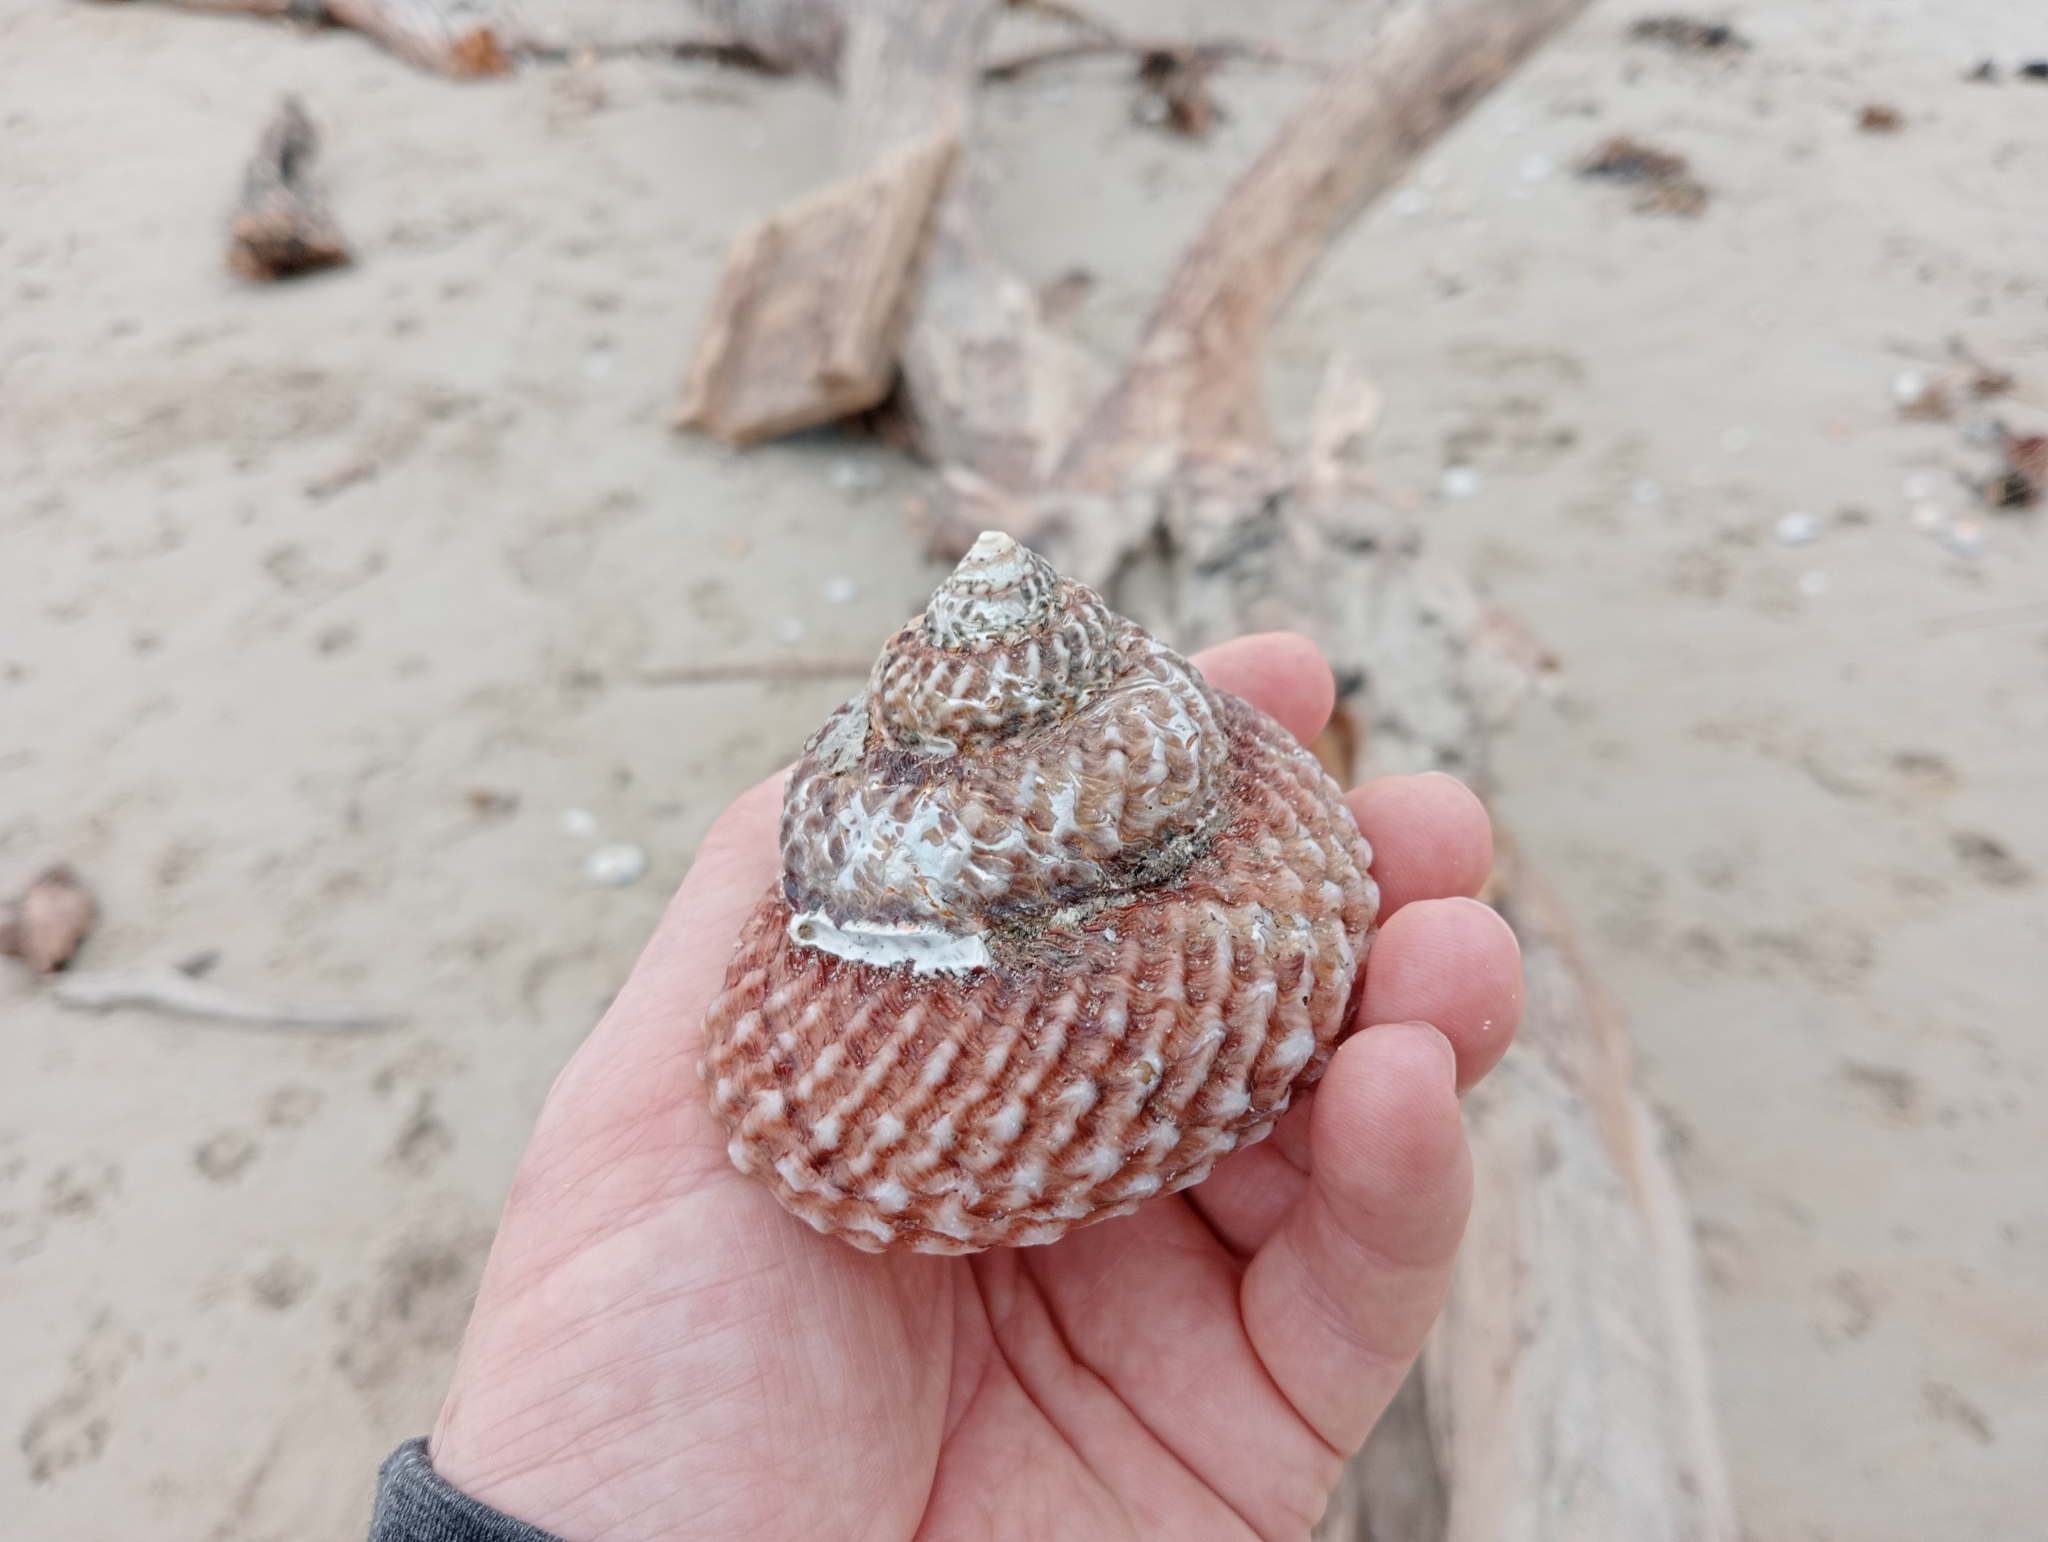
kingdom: Animalia
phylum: Mollusca
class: Gastropoda
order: Trochida
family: Turbinidae
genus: Cookia
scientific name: Cookia sulcata
